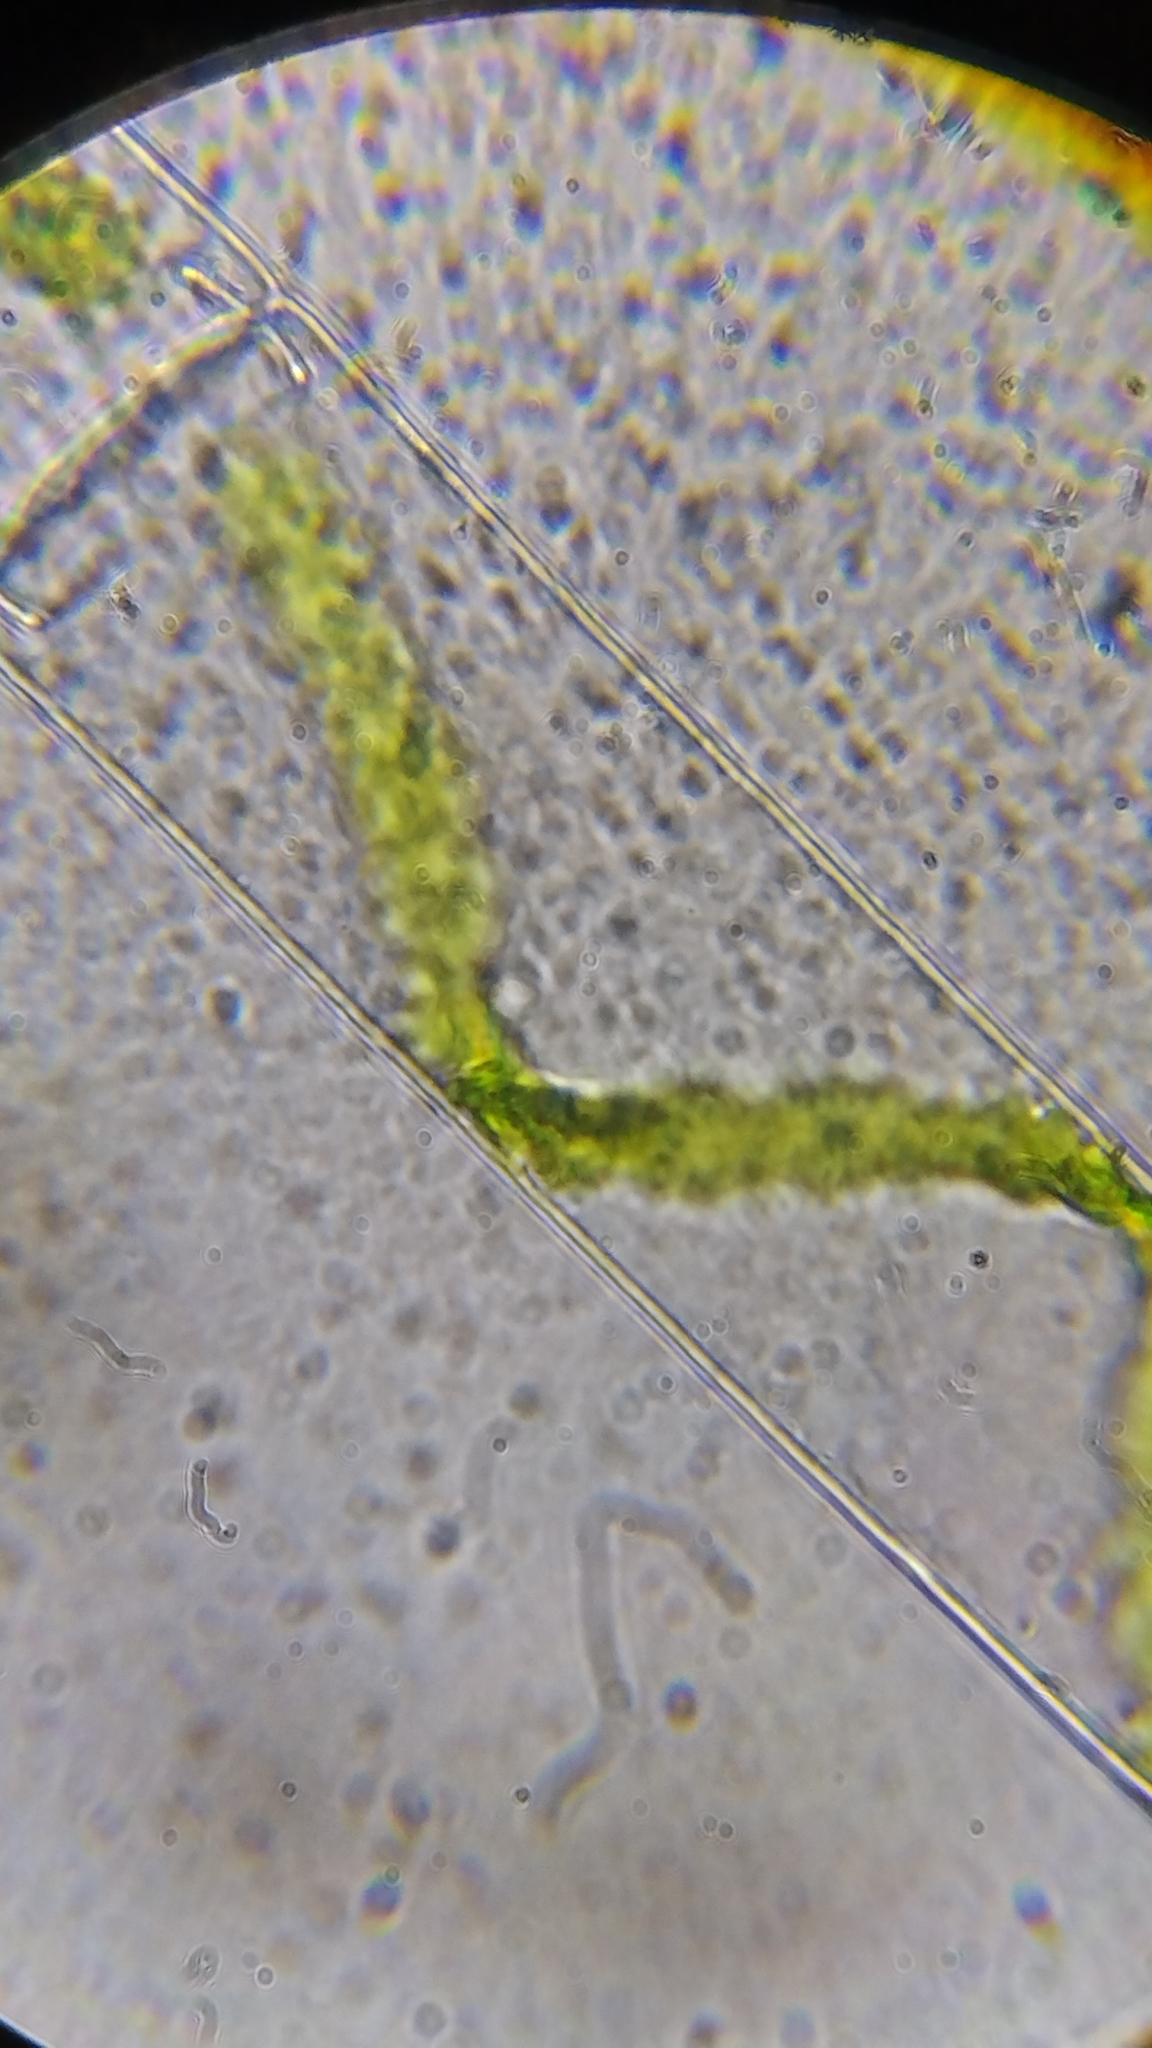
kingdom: Plantae
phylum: Charophyta
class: Zygnematophyceae
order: Zygnematales
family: Zygnemataceae
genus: Spirogyra
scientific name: Spirogyra
